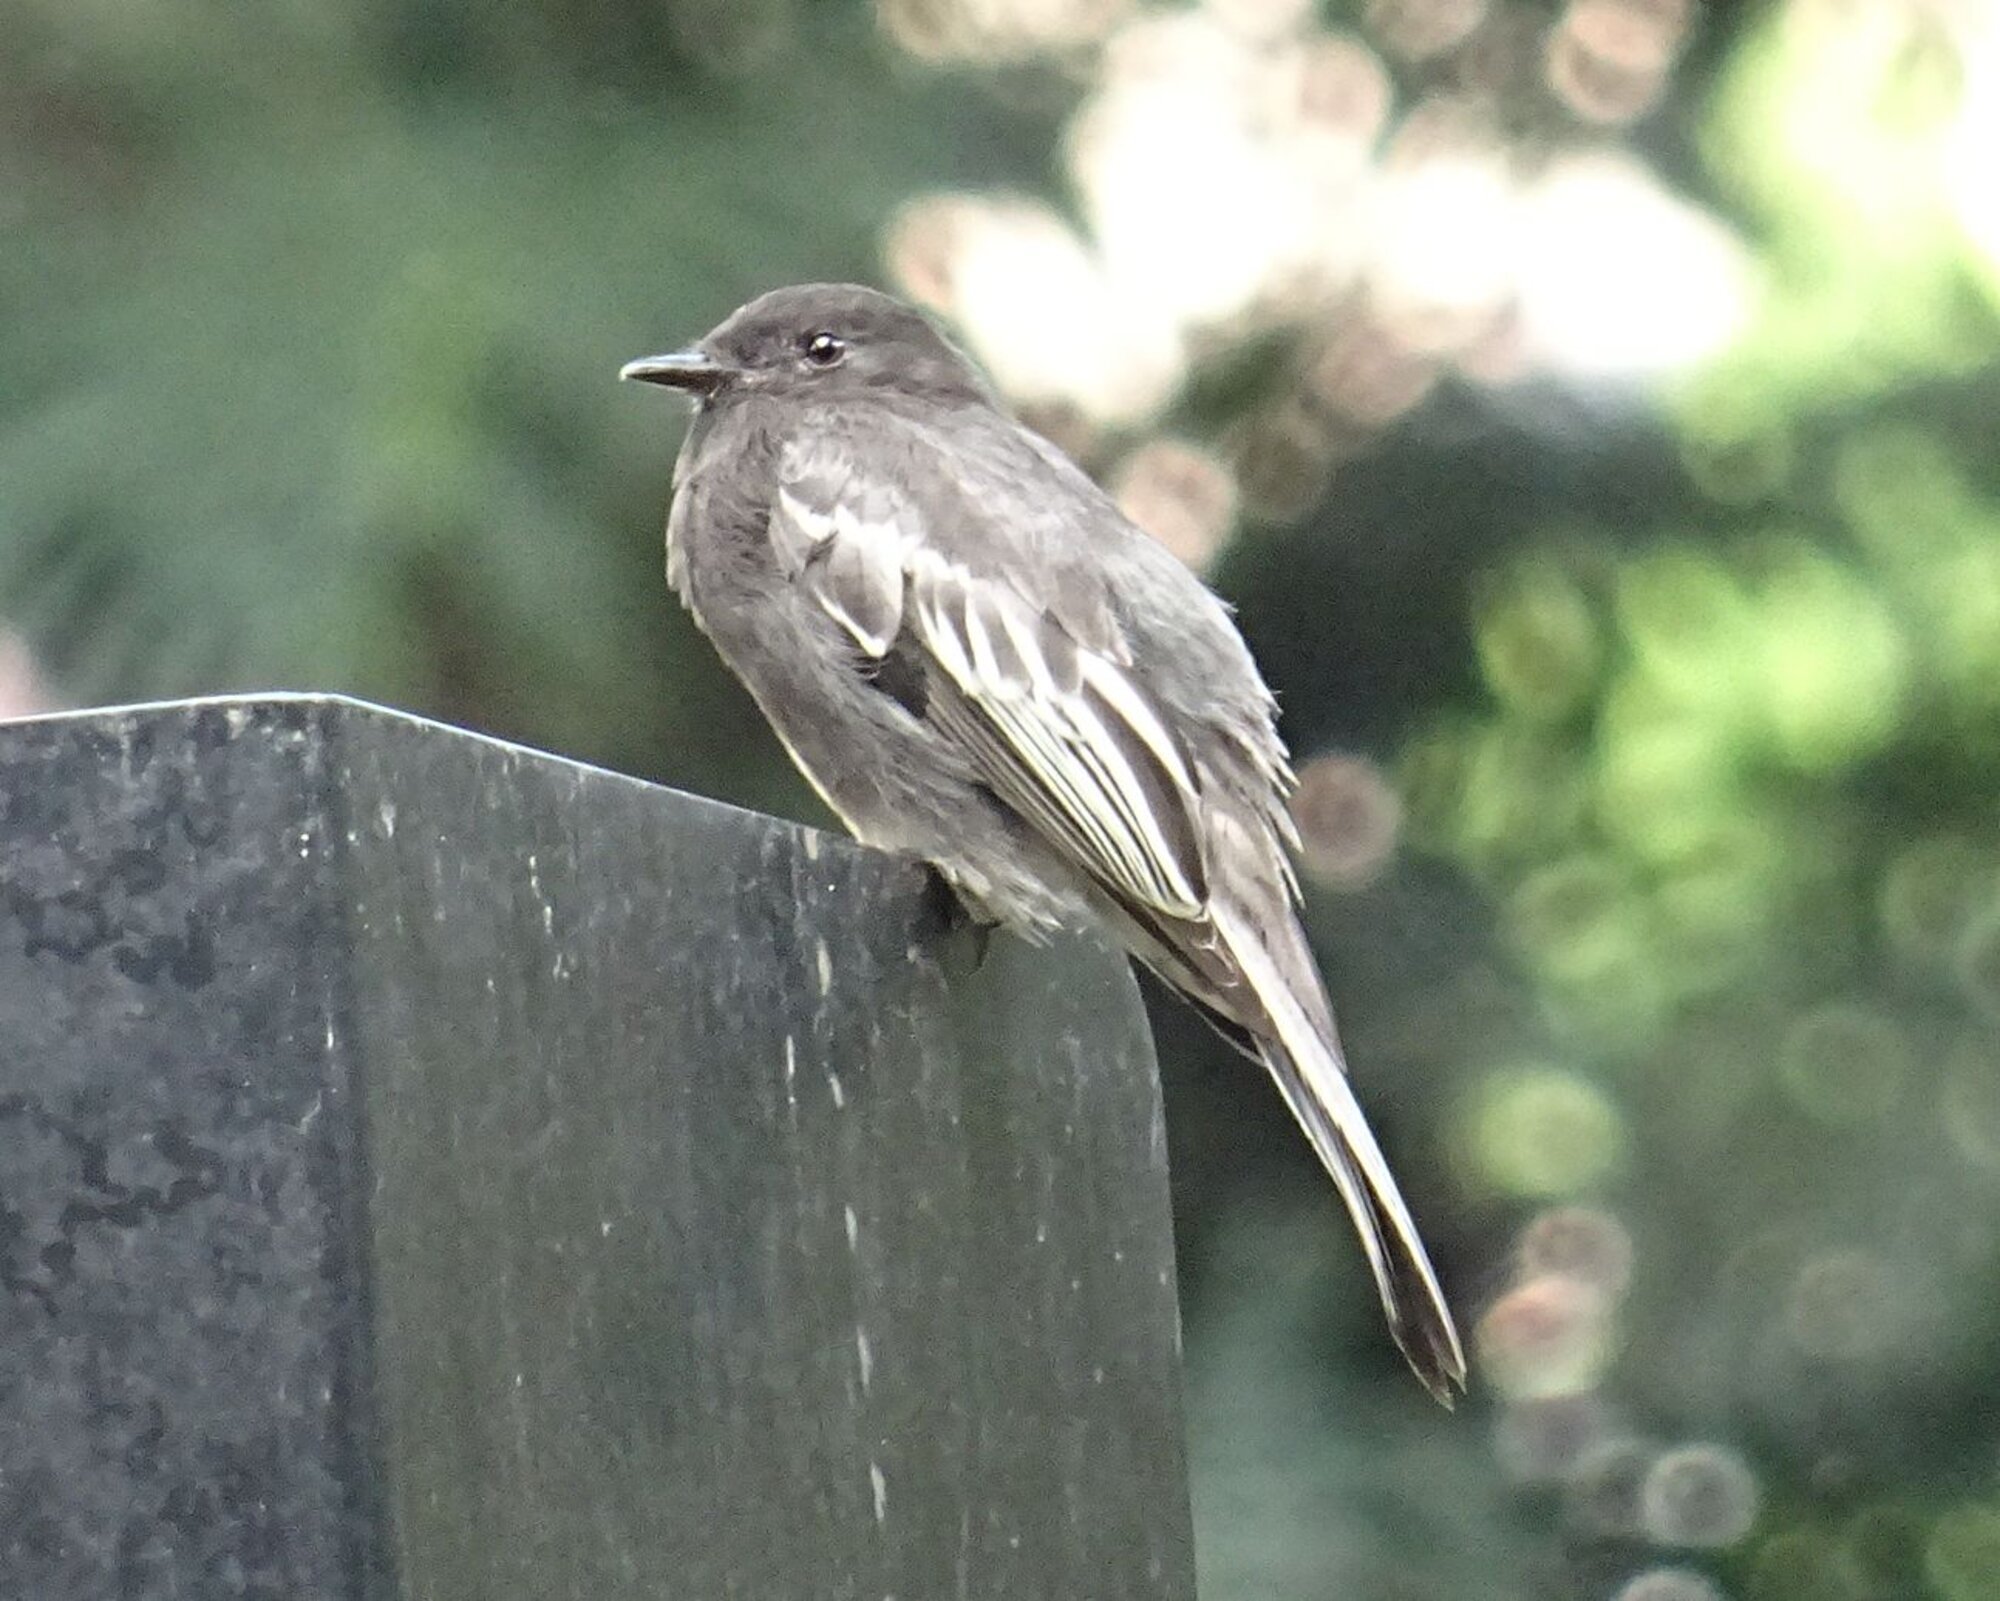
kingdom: Animalia
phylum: Chordata
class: Aves
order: Passeriformes
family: Tyrannidae
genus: Sayornis
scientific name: Sayornis nigricans
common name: Black phoebe
